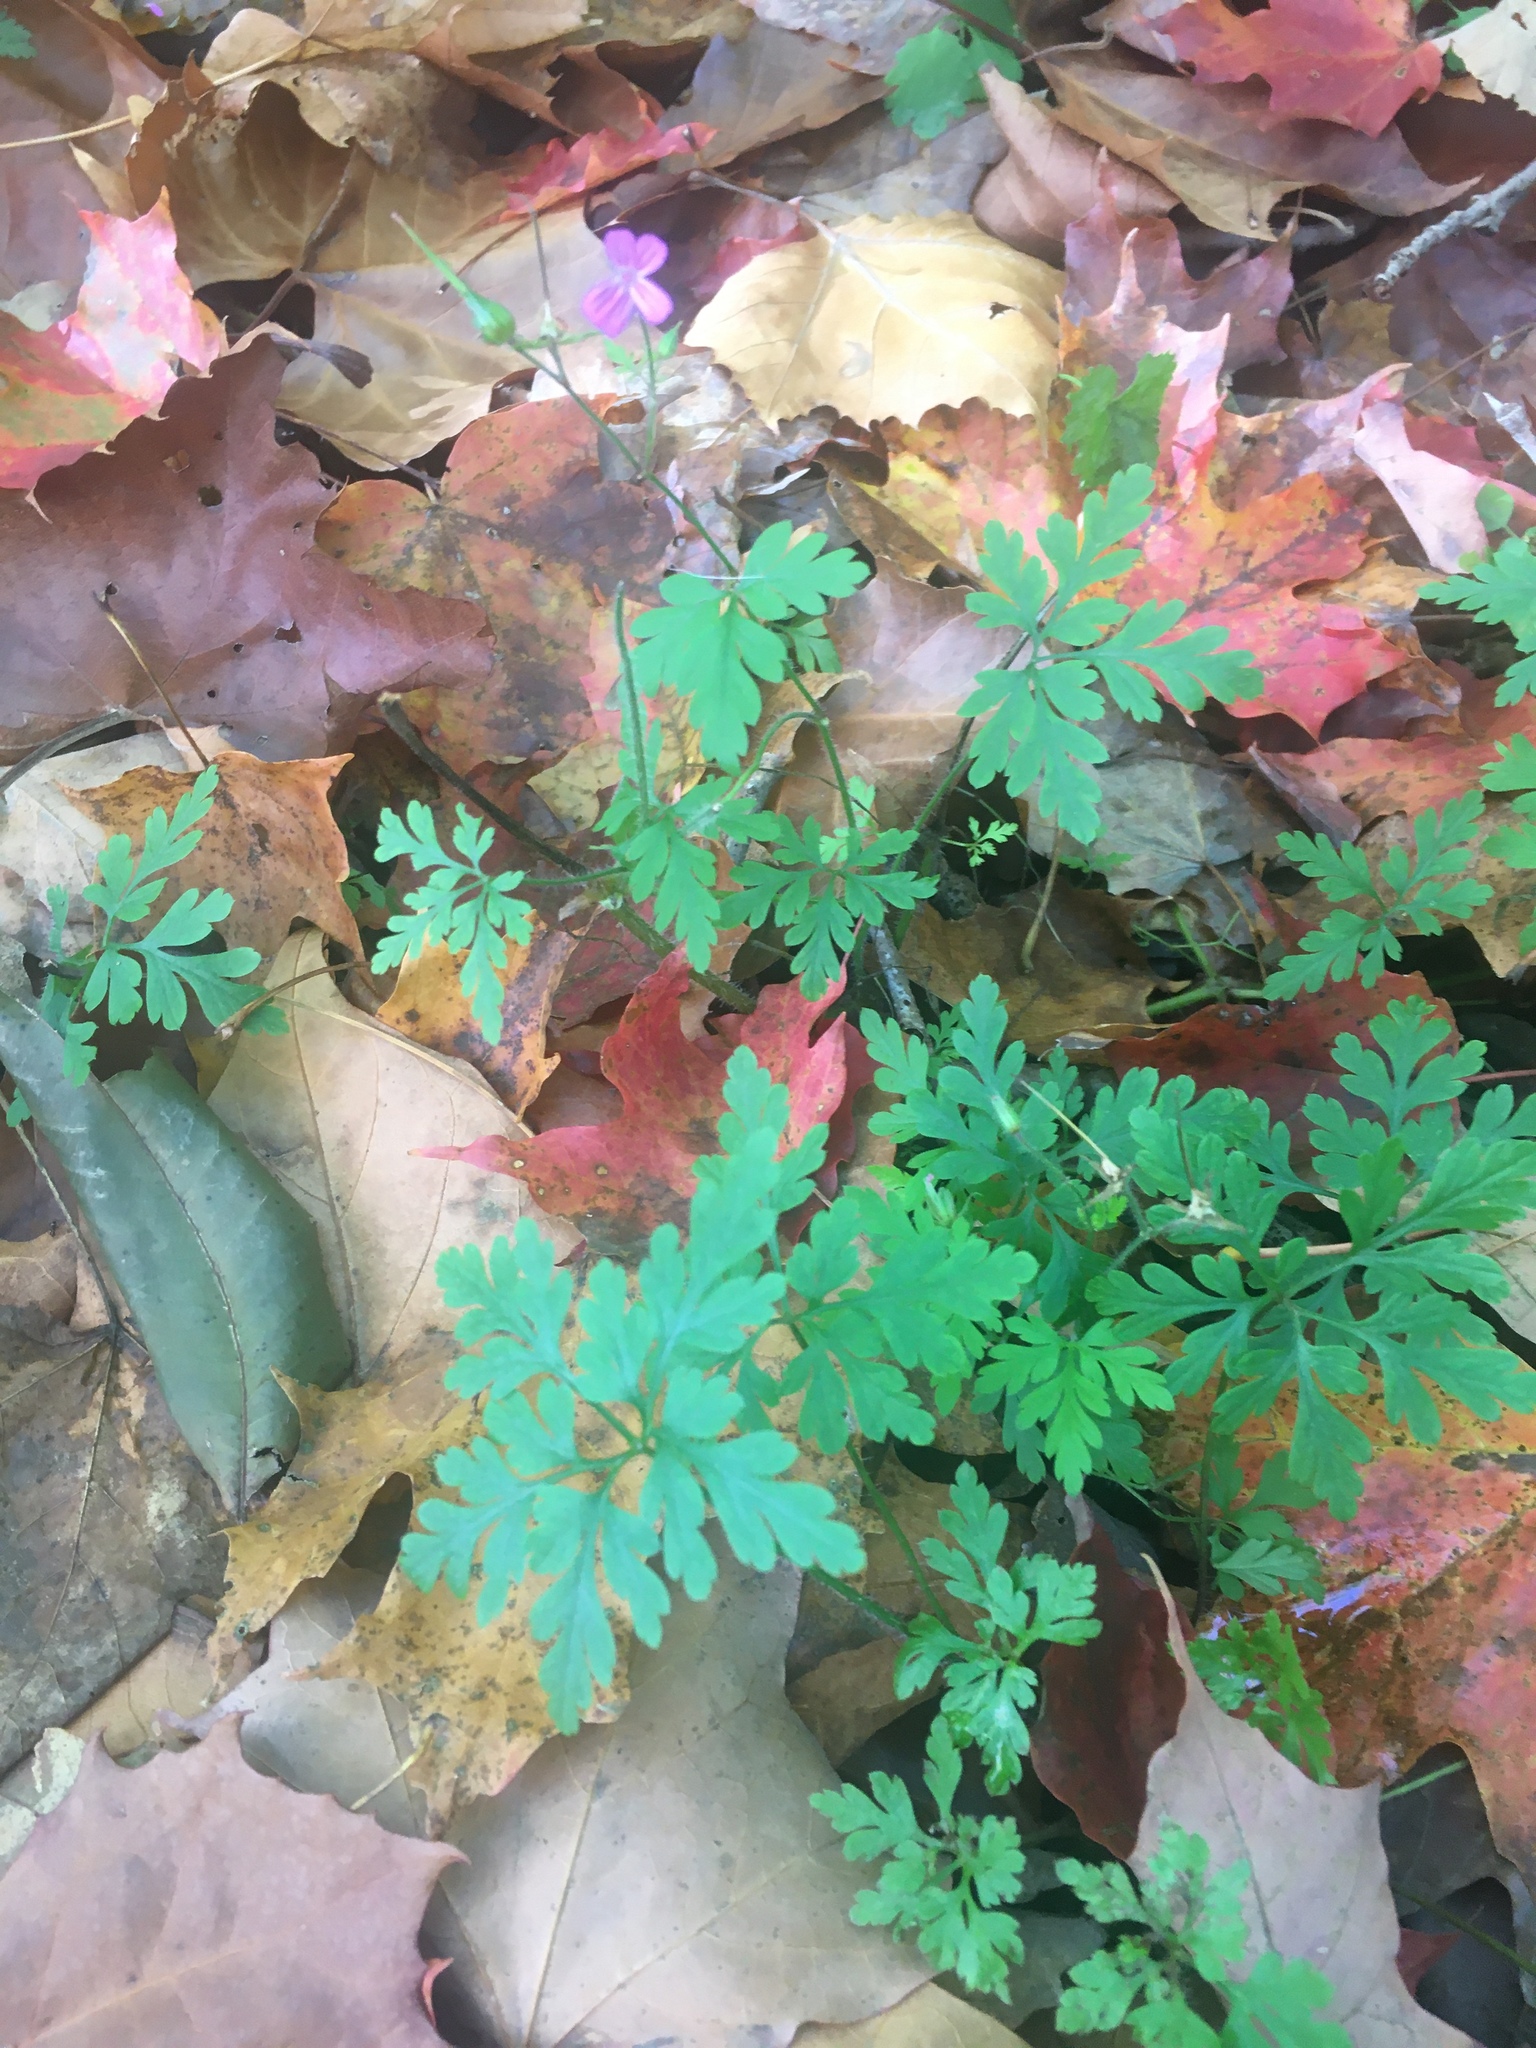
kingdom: Plantae
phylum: Tracheophyta
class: Magnoliopsida
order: Geraniales
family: Geraniaceae
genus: Geranium
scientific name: Geranium robertianum
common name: Herb-robert
